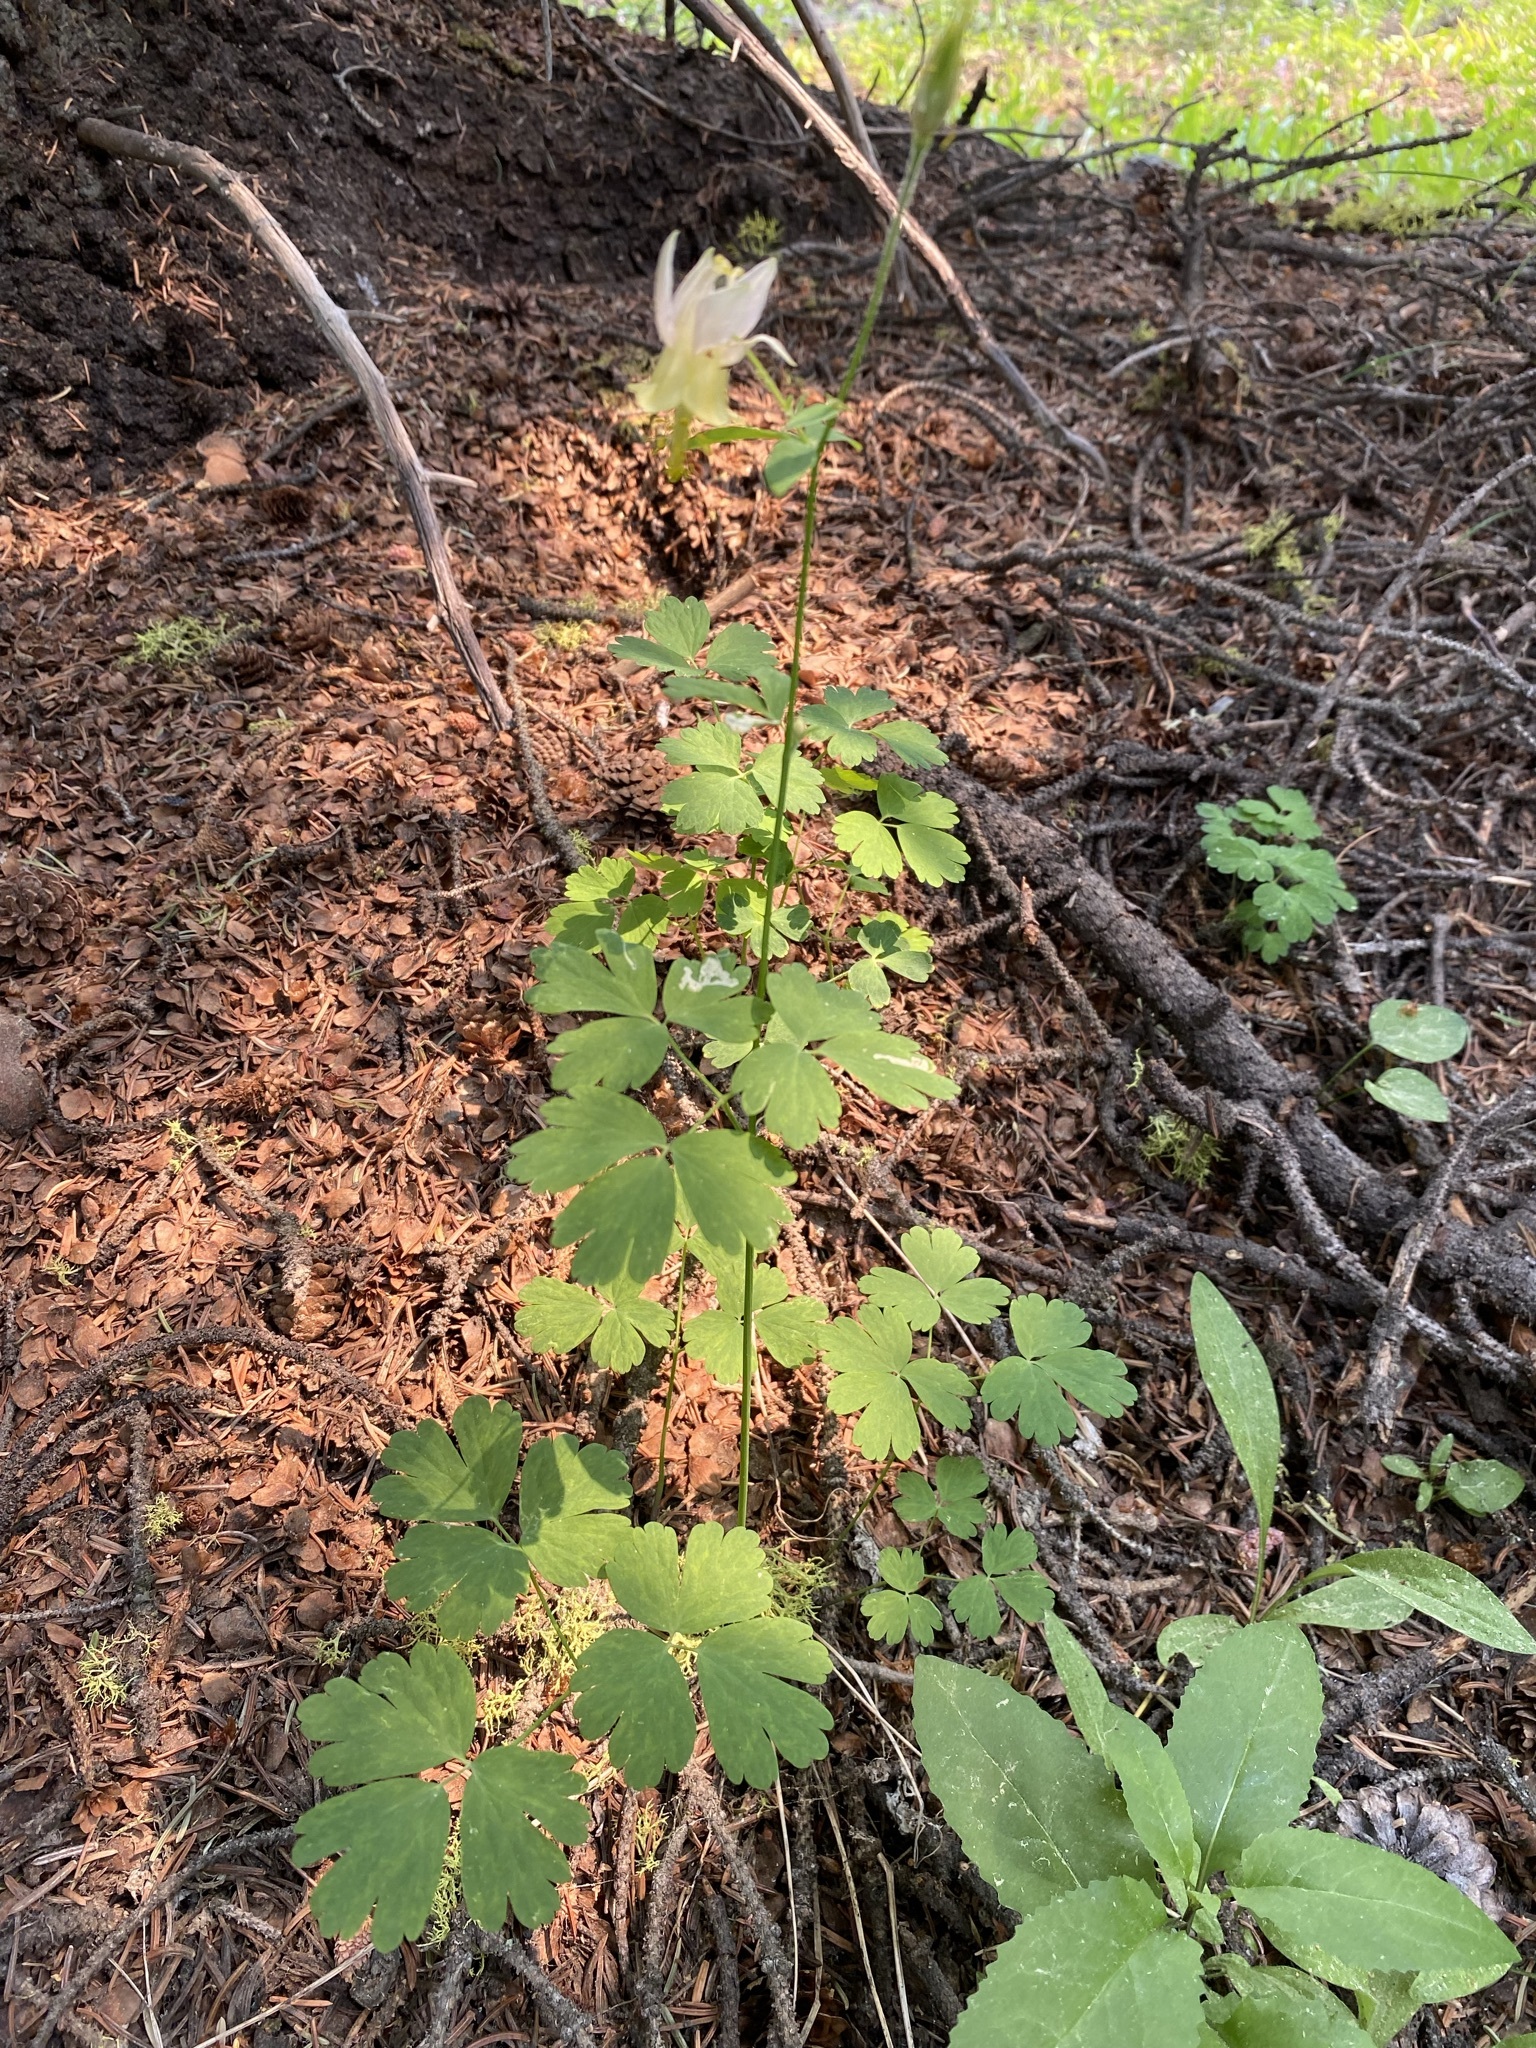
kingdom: Plantae
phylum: Tracheophyta
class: Magnoliopsida
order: Ranunculales
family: Ranunculaceae
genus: Aquilegia
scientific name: Aquilegia flavescens
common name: Yellow columbine
